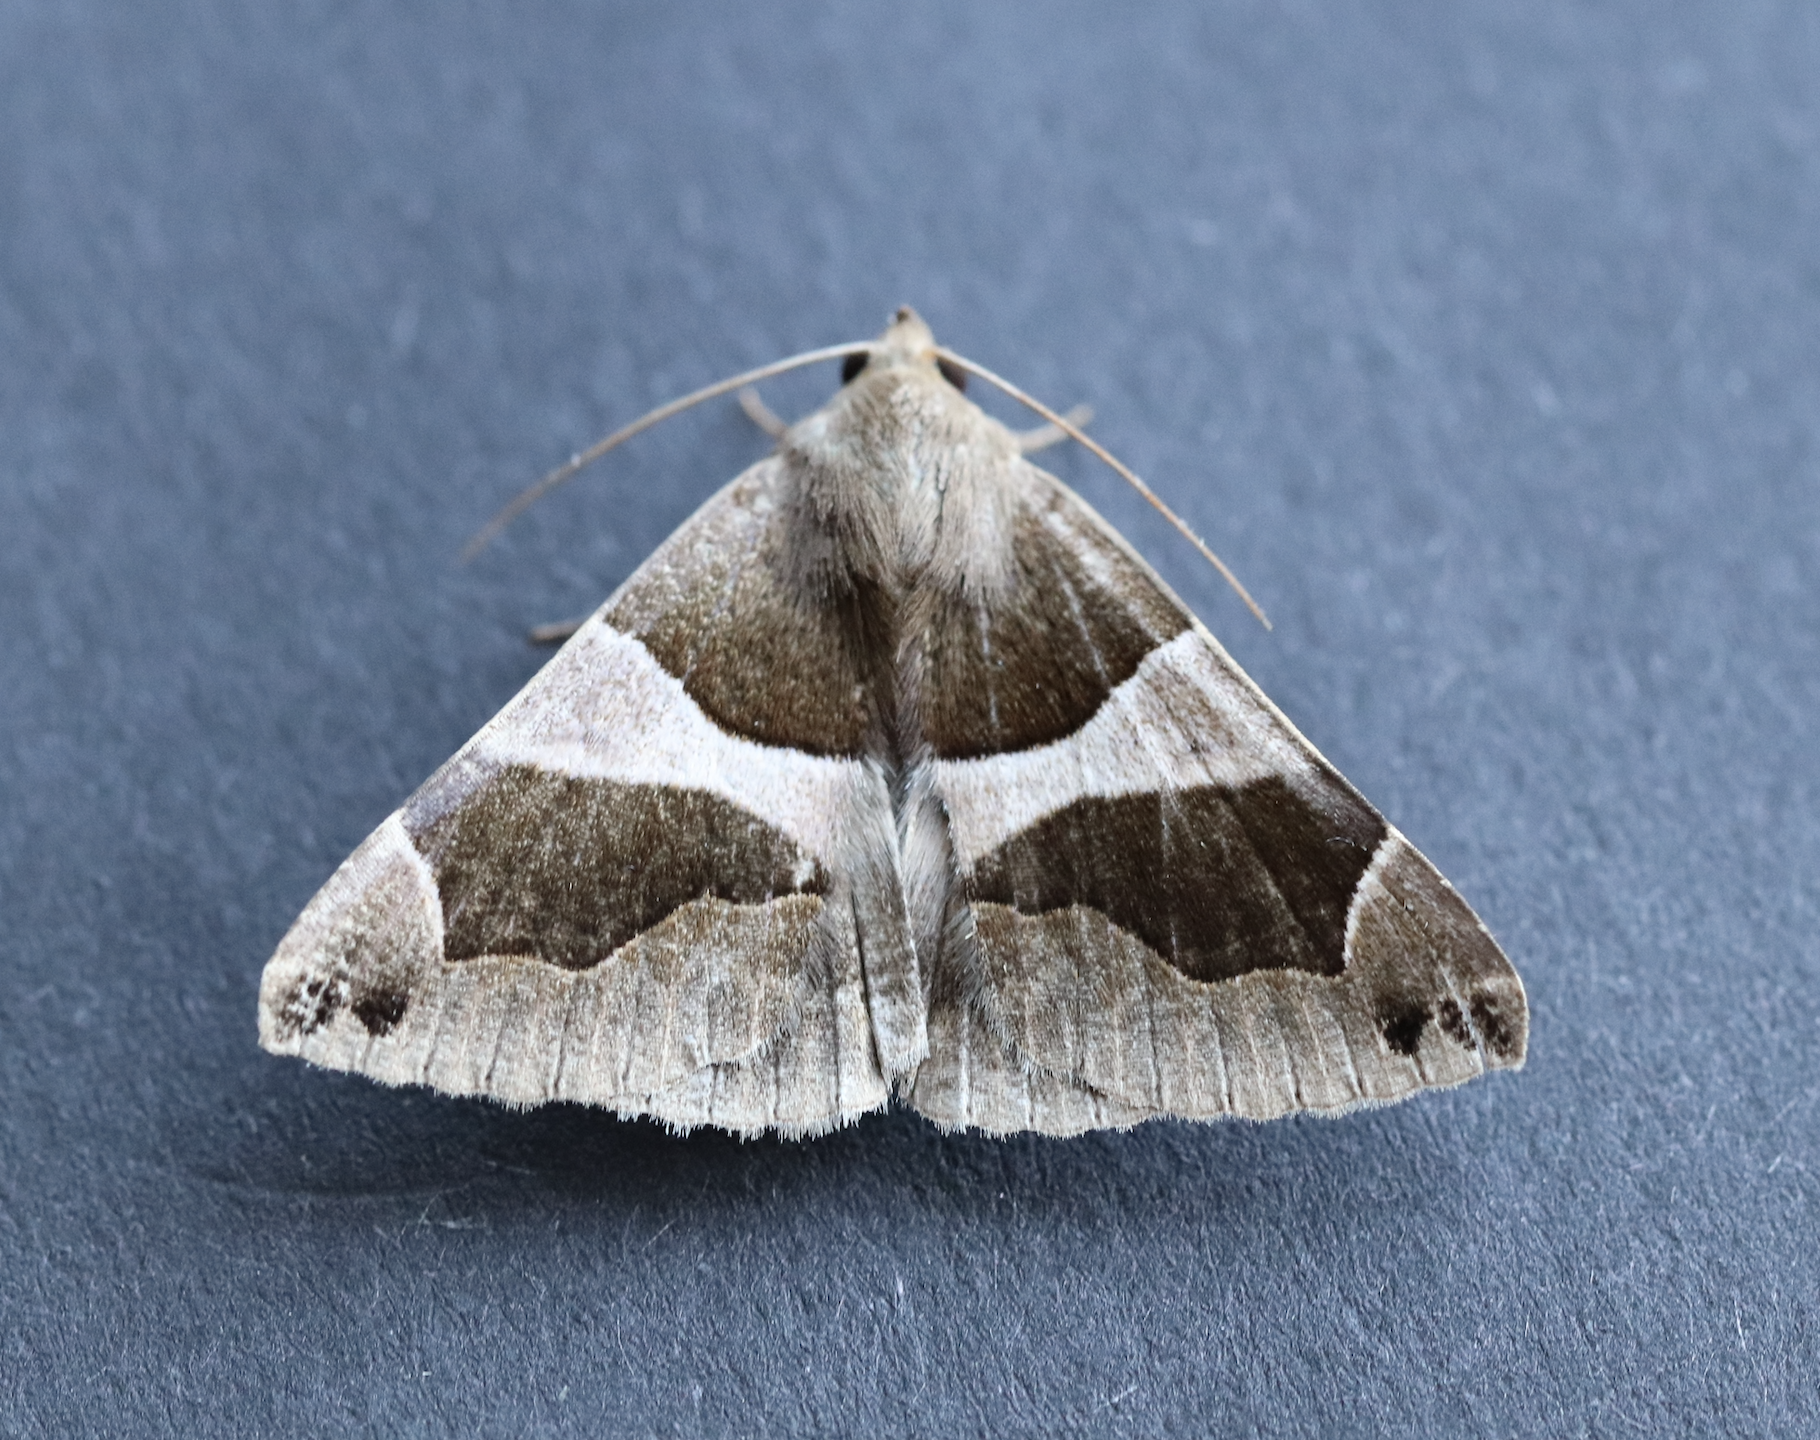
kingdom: Animalia
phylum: Arthropoda
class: Insecta
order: Lepidoptera
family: Erebidae
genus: Dysgonia
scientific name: Dysgonia algira
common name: Passenger
